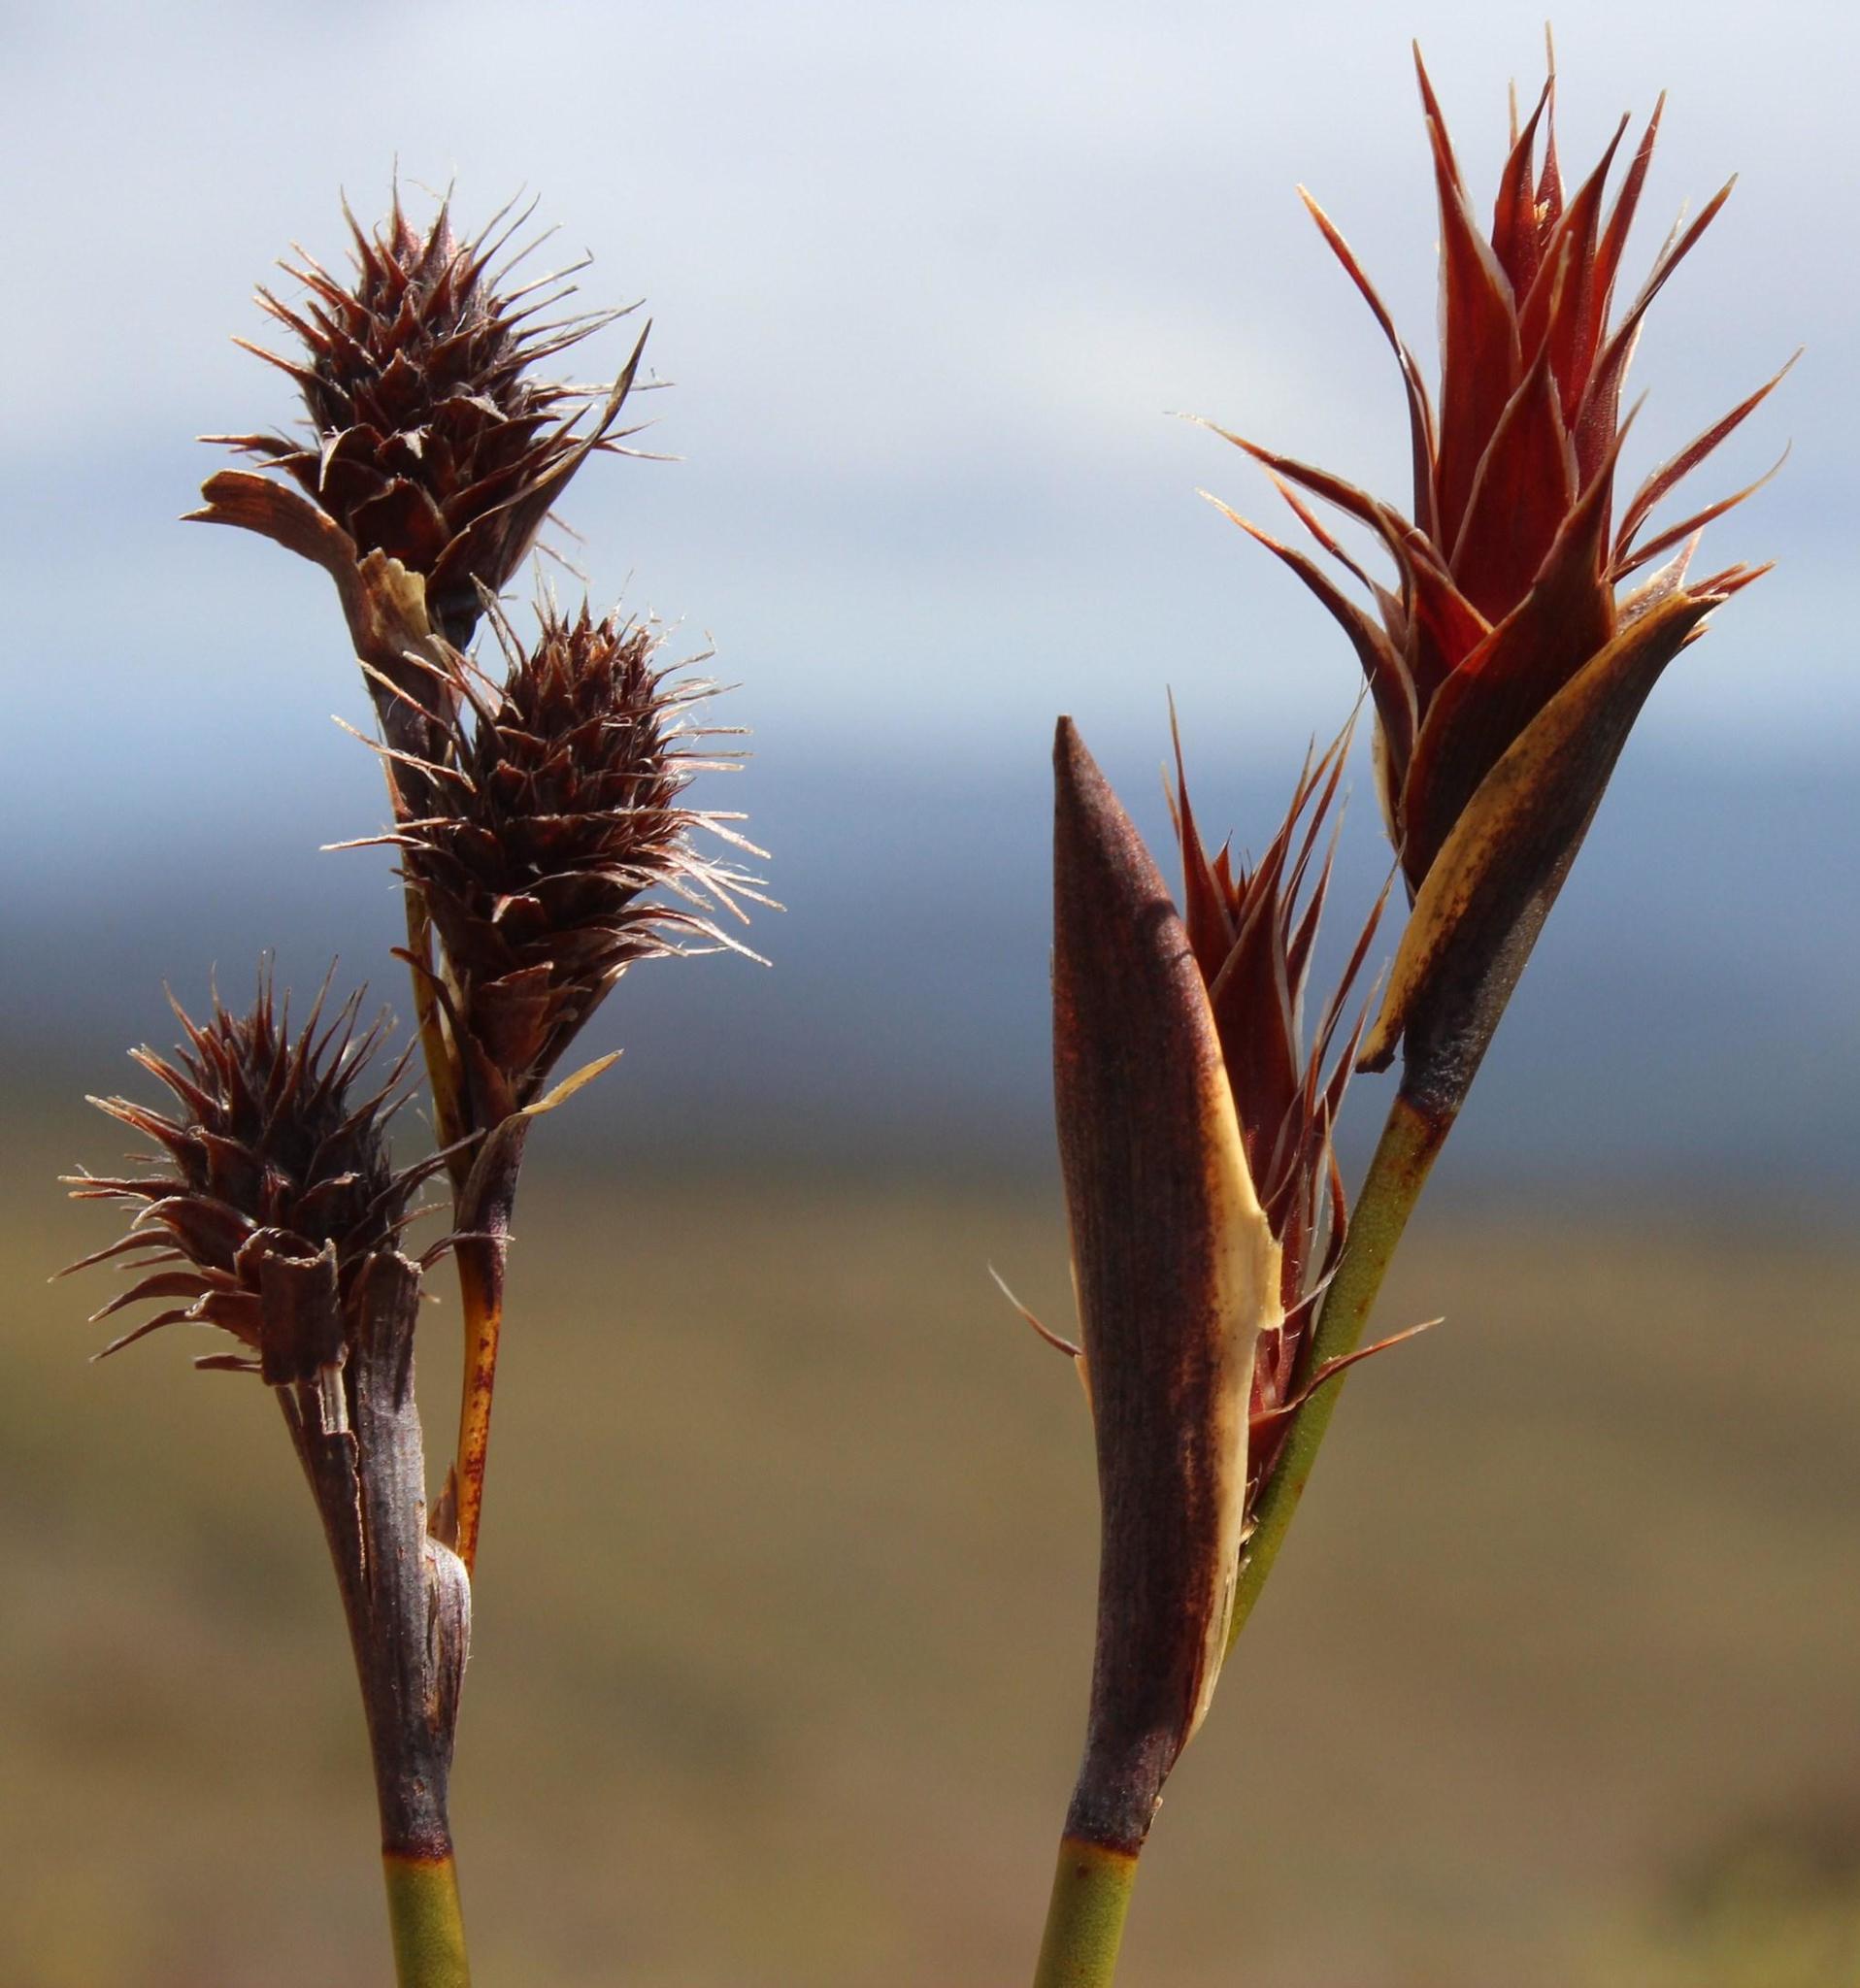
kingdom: Plantae
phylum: Tracheophyta
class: Liliopsida
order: Poales
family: Restionaceae
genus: Hypodiscus
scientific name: Hypodiscus aristatus
